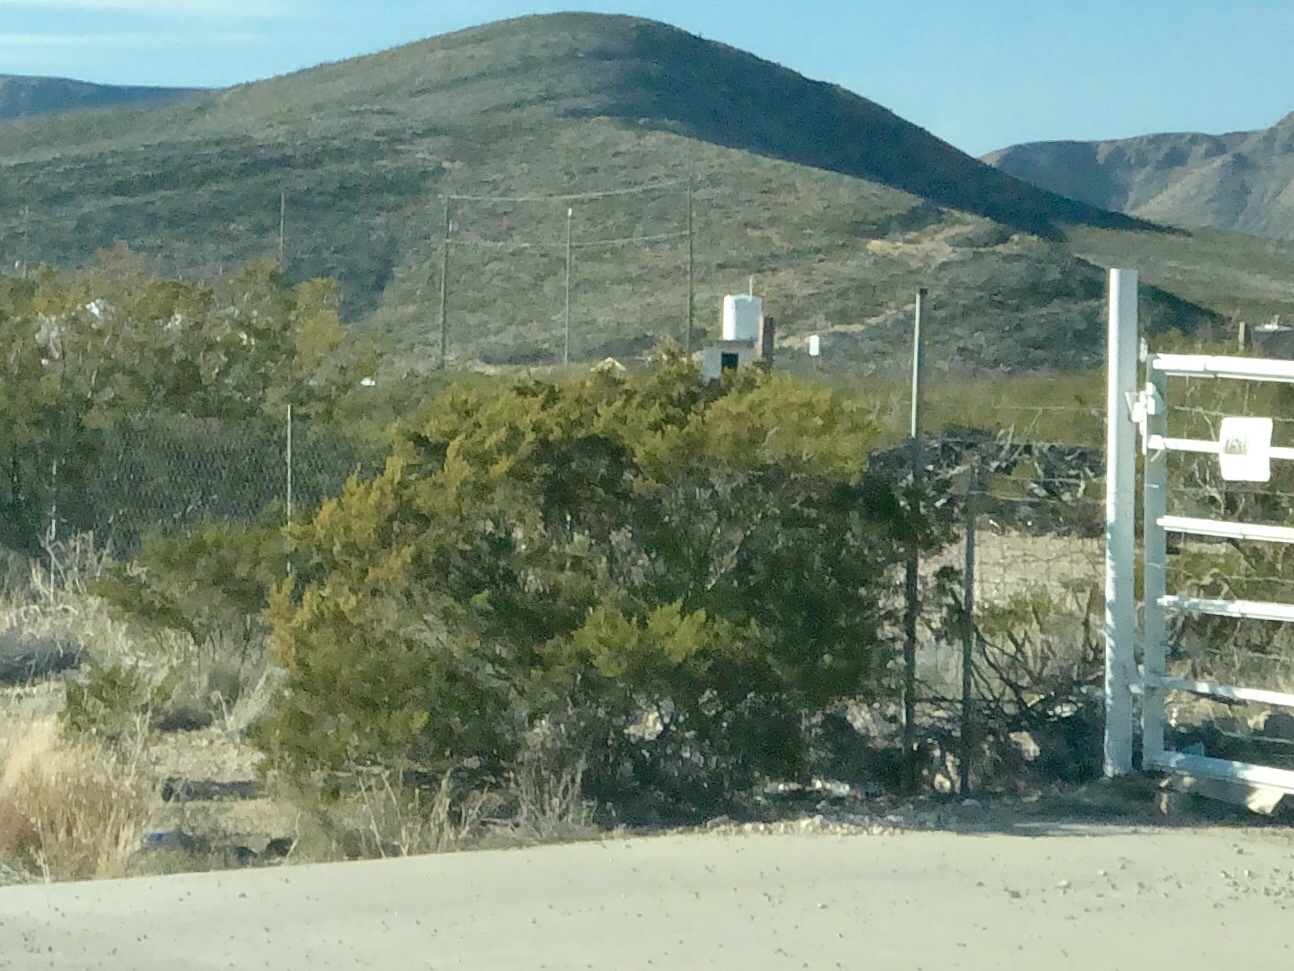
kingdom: Plantae
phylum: Tracheophyta
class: Magnoliopsida
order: Zygophyllales
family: Zygophyllaceae
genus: Larrea
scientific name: Larrea tridentata
